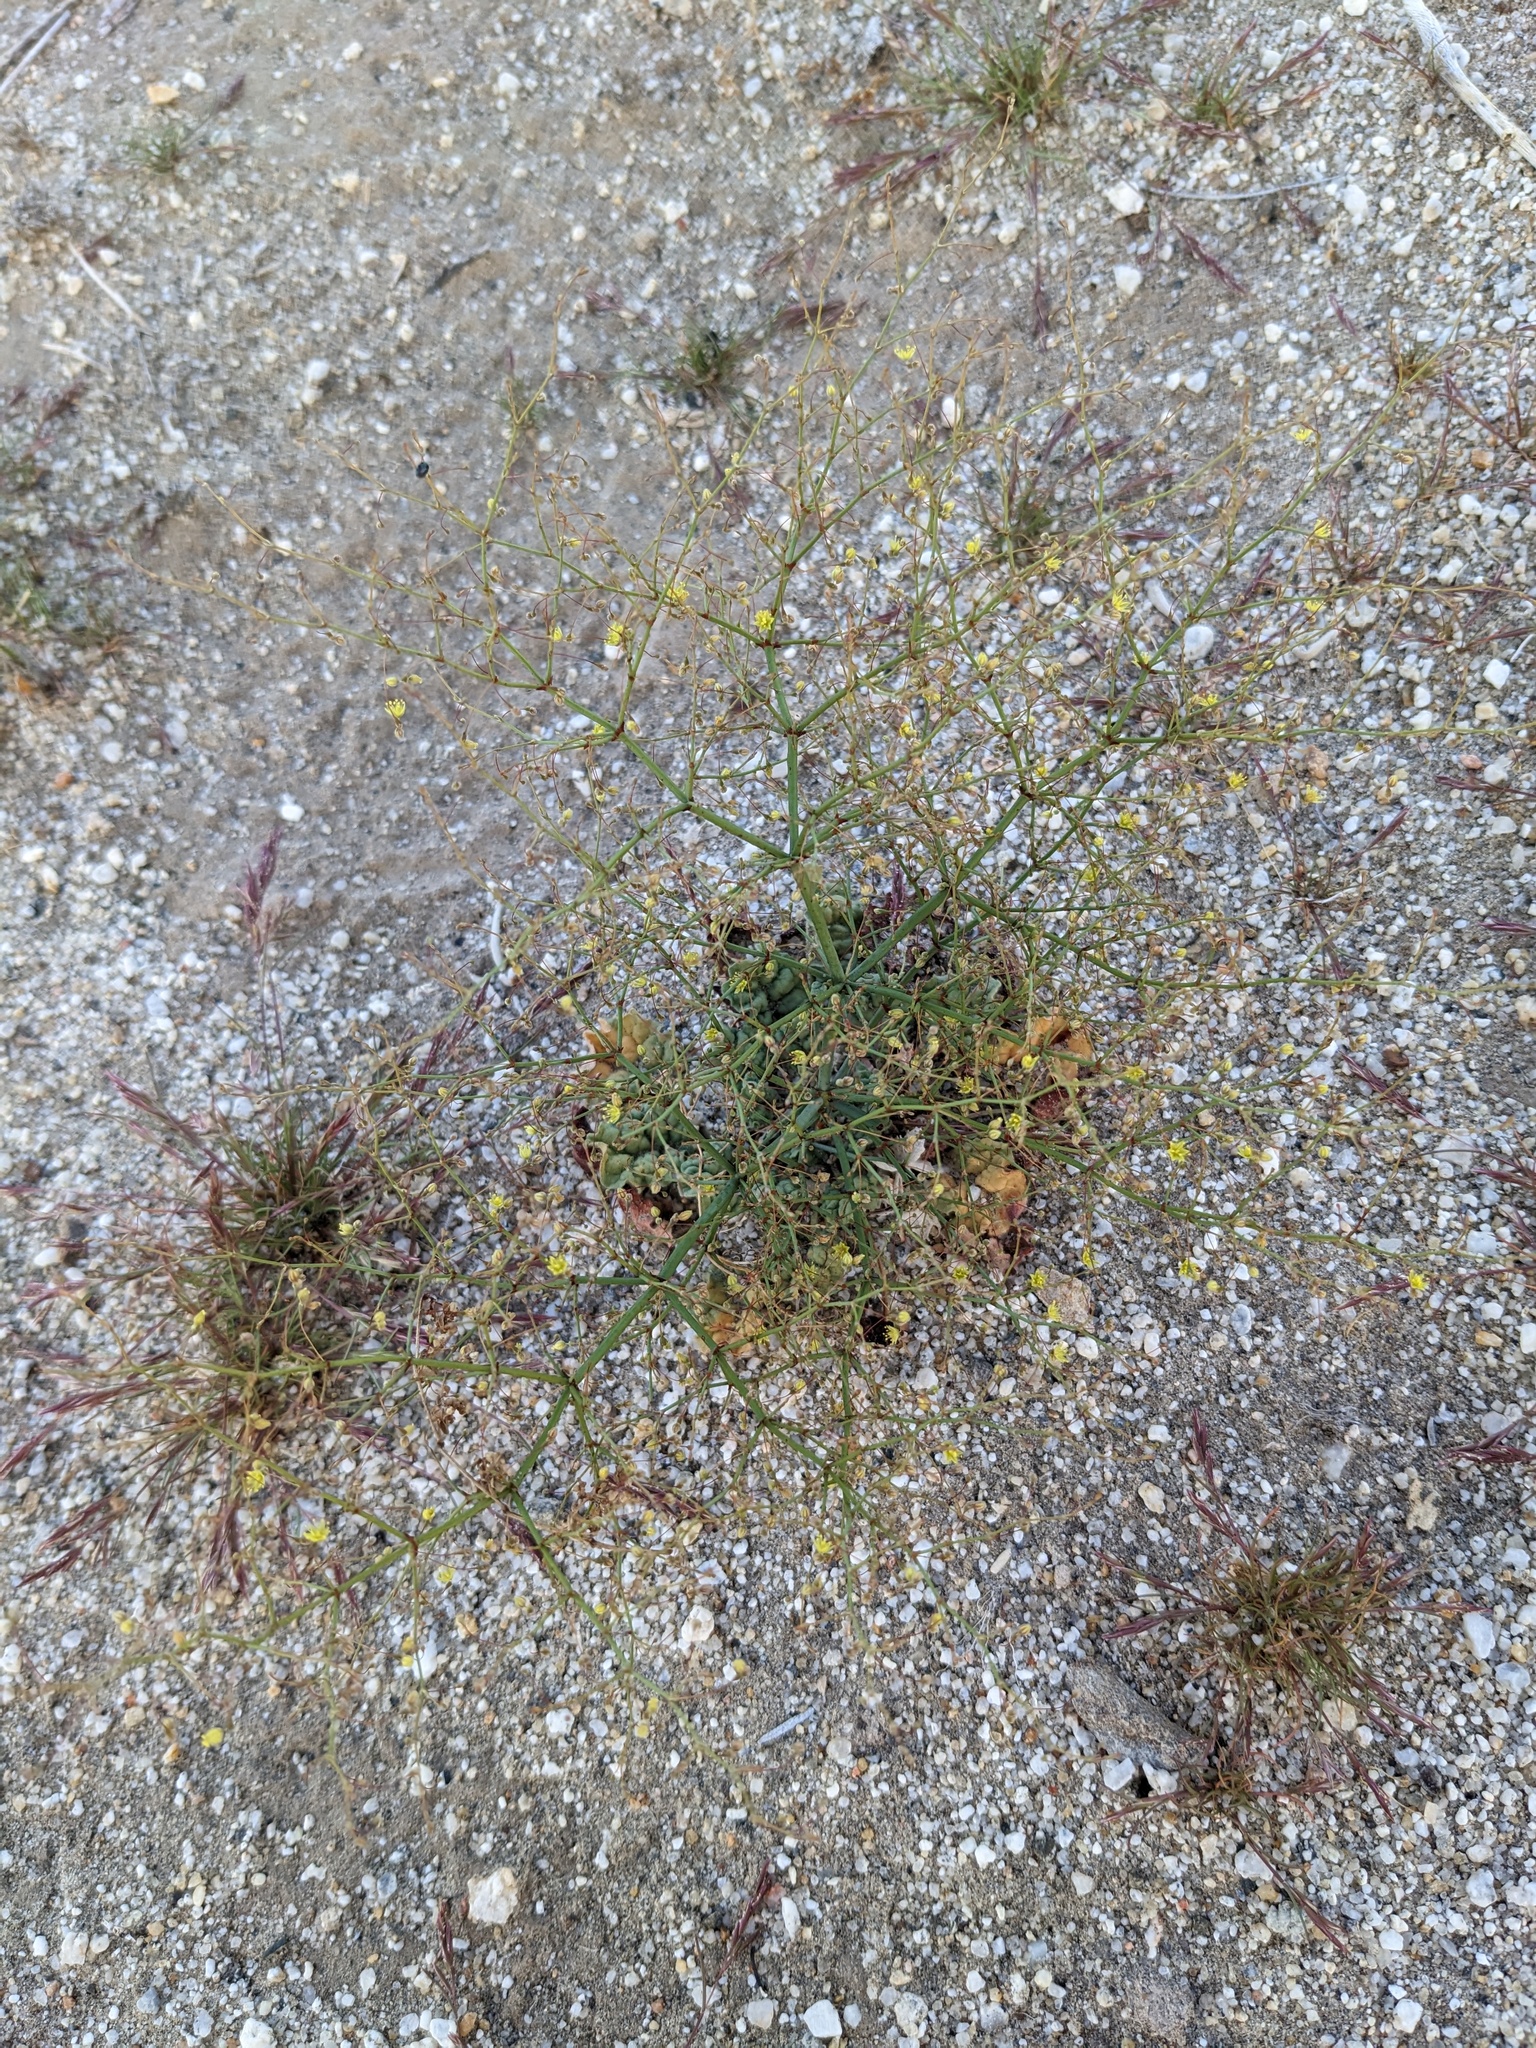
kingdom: Plantae
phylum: Tracheophyta
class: Magnoliopsida
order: Caryophyllales
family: Polygonaceae
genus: Eriogonum
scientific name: Eriogonum trichopes
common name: Little desert trumpet
